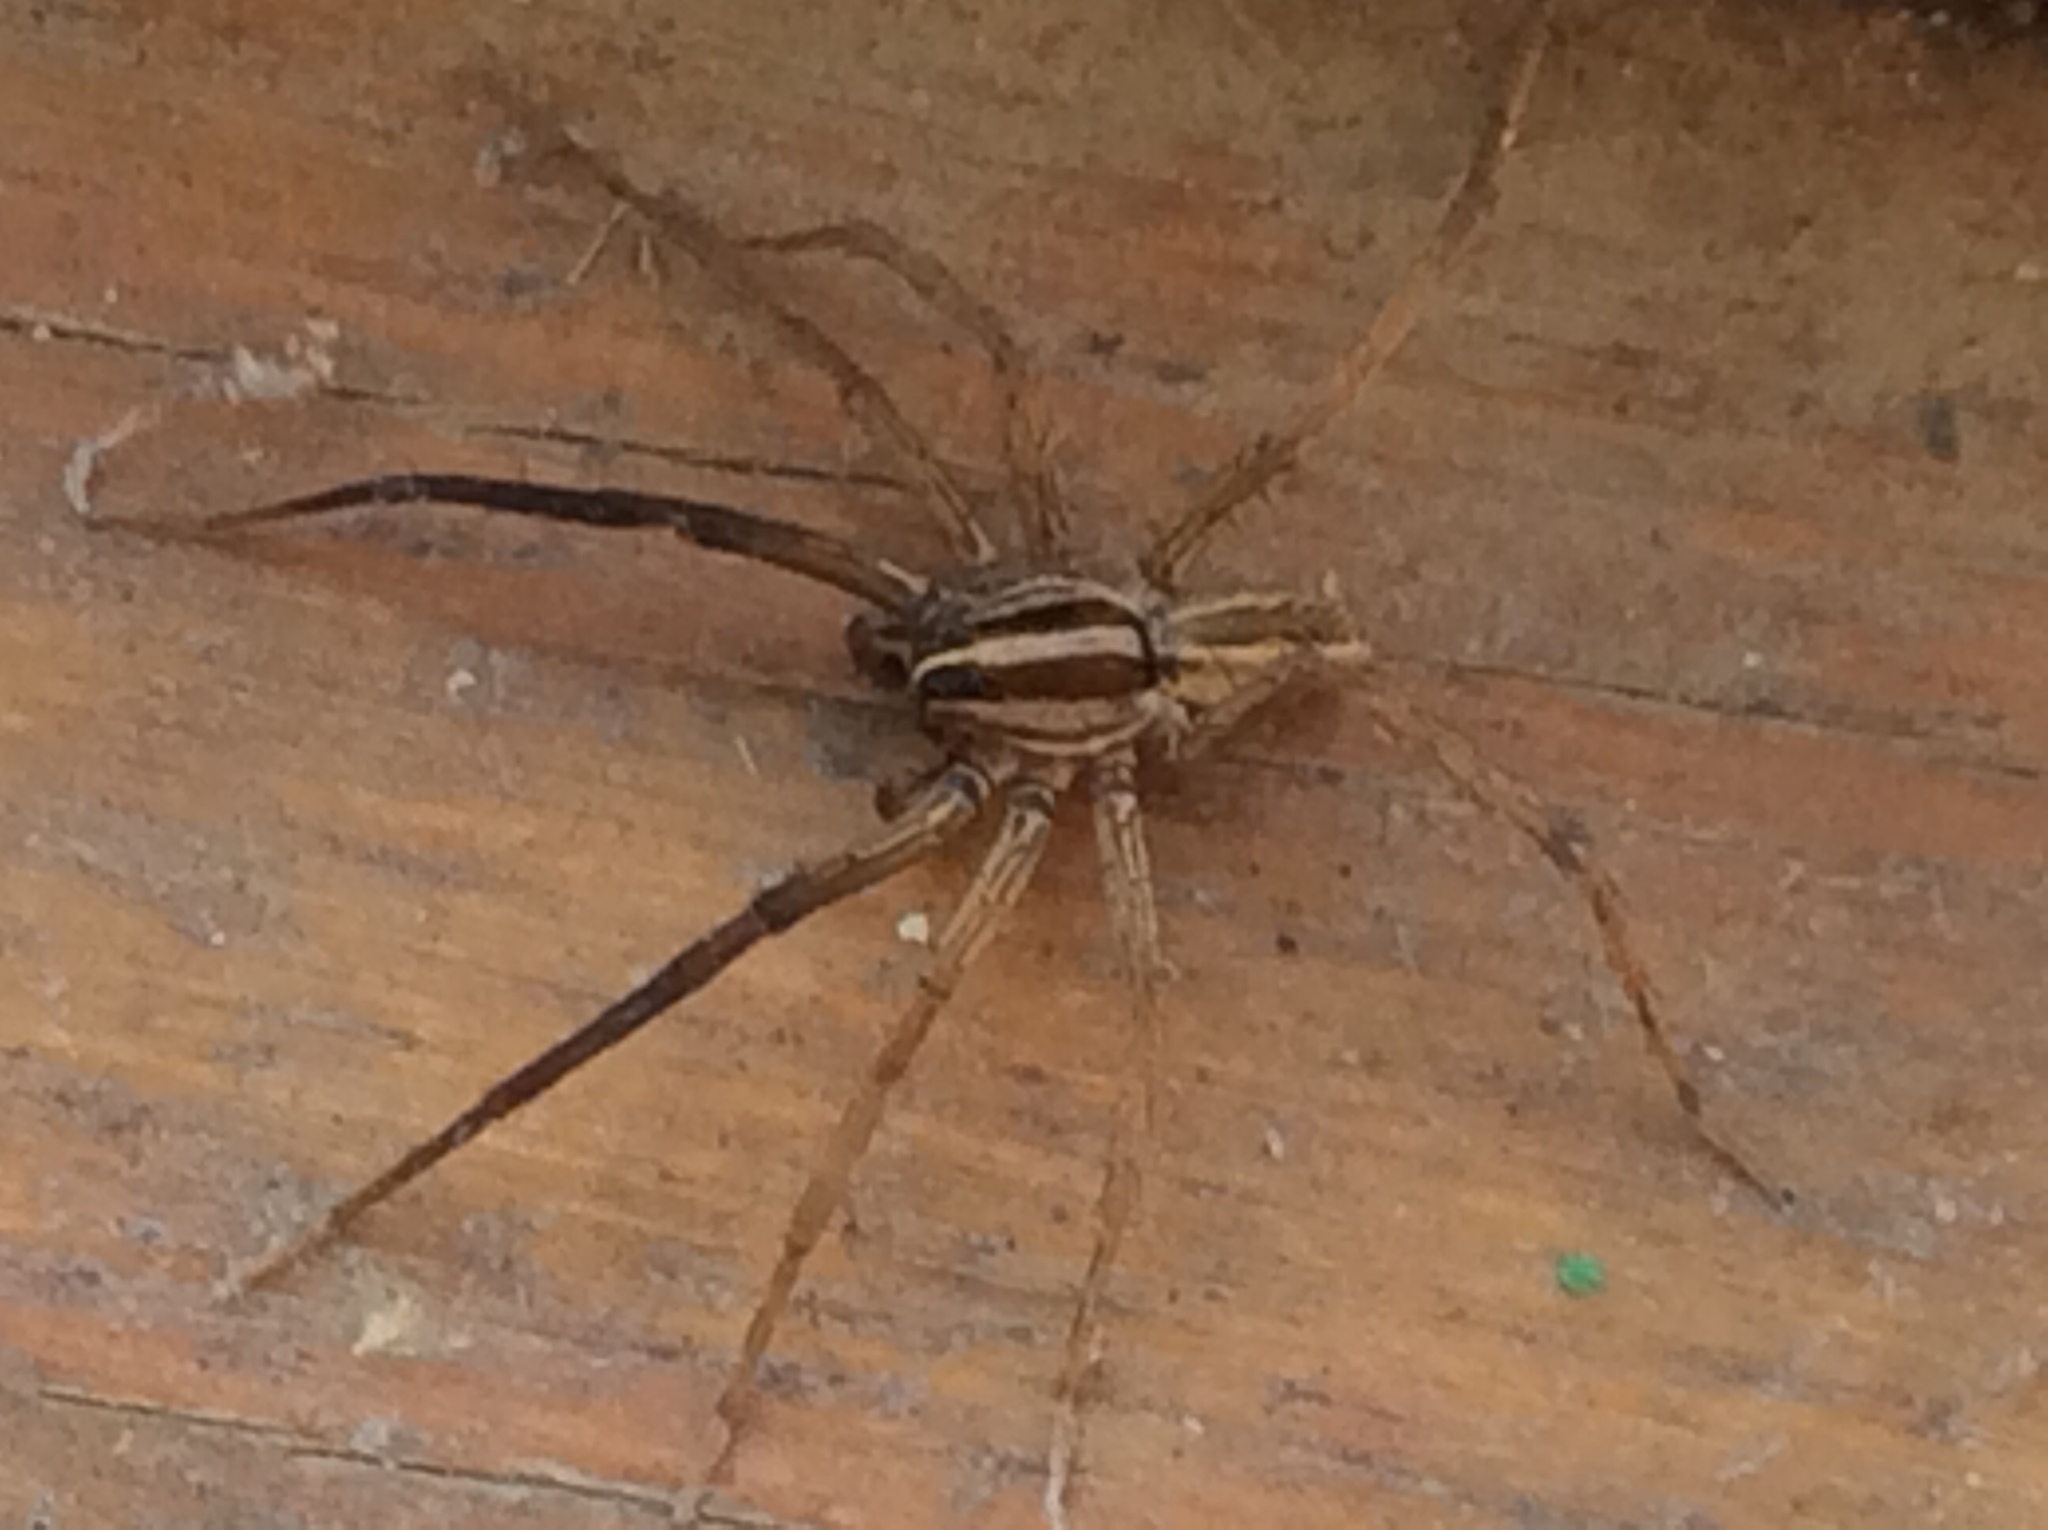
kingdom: Animalia
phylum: Arthropoda
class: Arachnida
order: Araneae
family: Lycosidae
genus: Rabidosa
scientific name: Rabidosa rabida
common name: Rabid wolf spider
